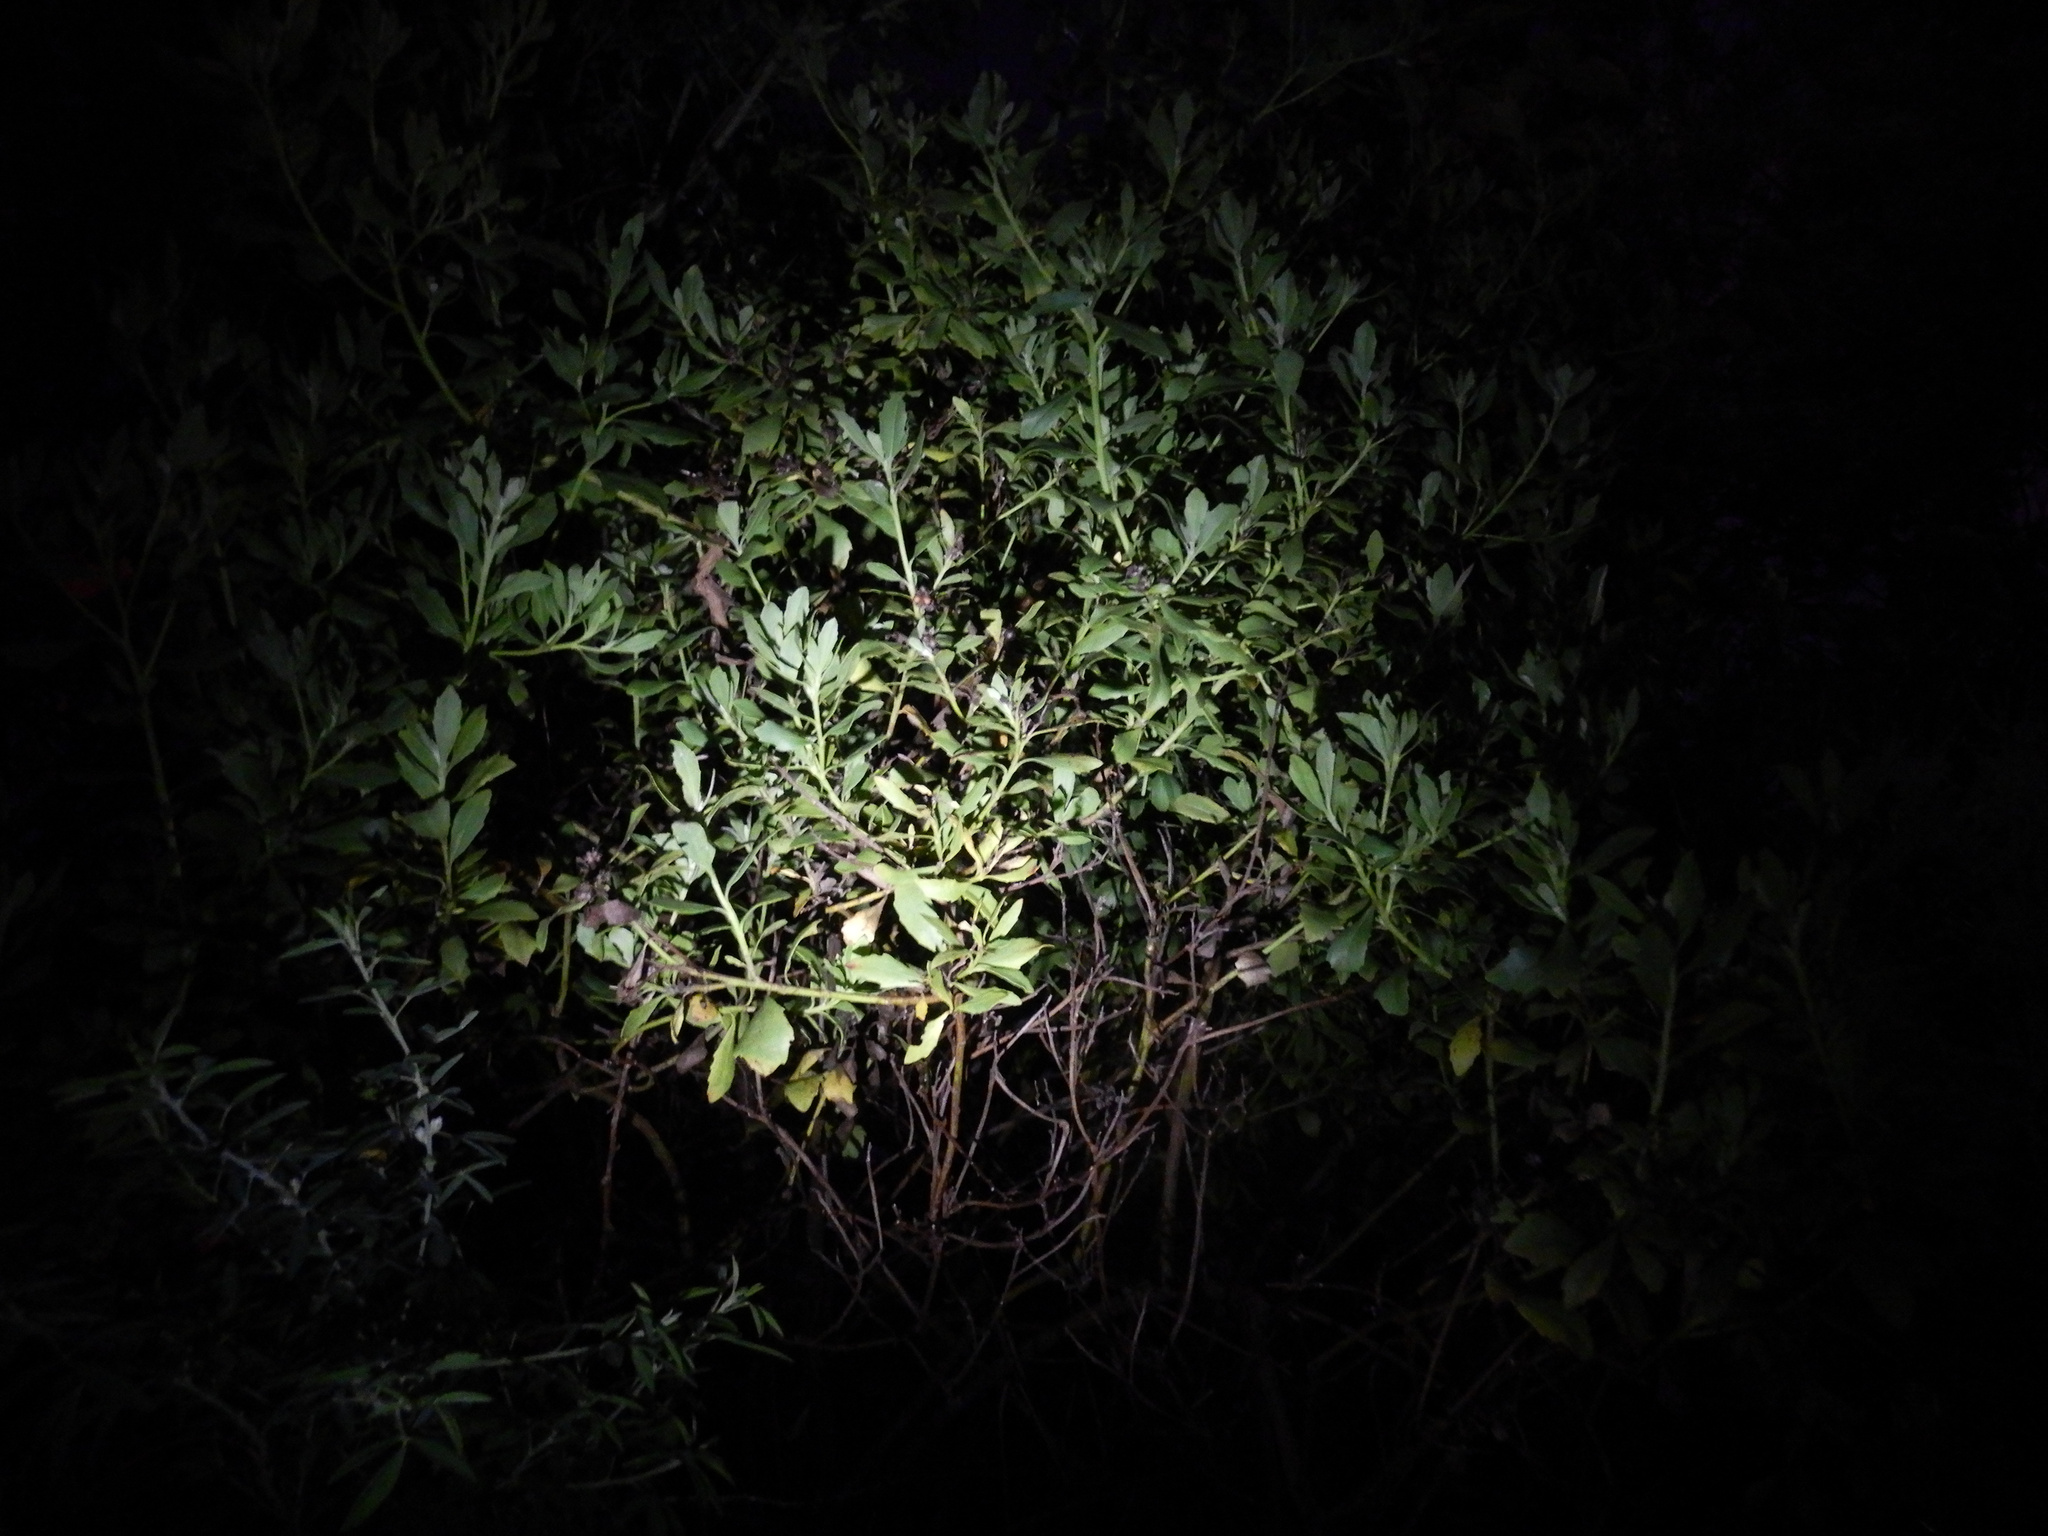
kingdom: Plantae
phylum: Tracheophyta
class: Magnoliopsida
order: Asterales
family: Asteraceae
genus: Osteospermum
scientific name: Osteospermum moniliferum
